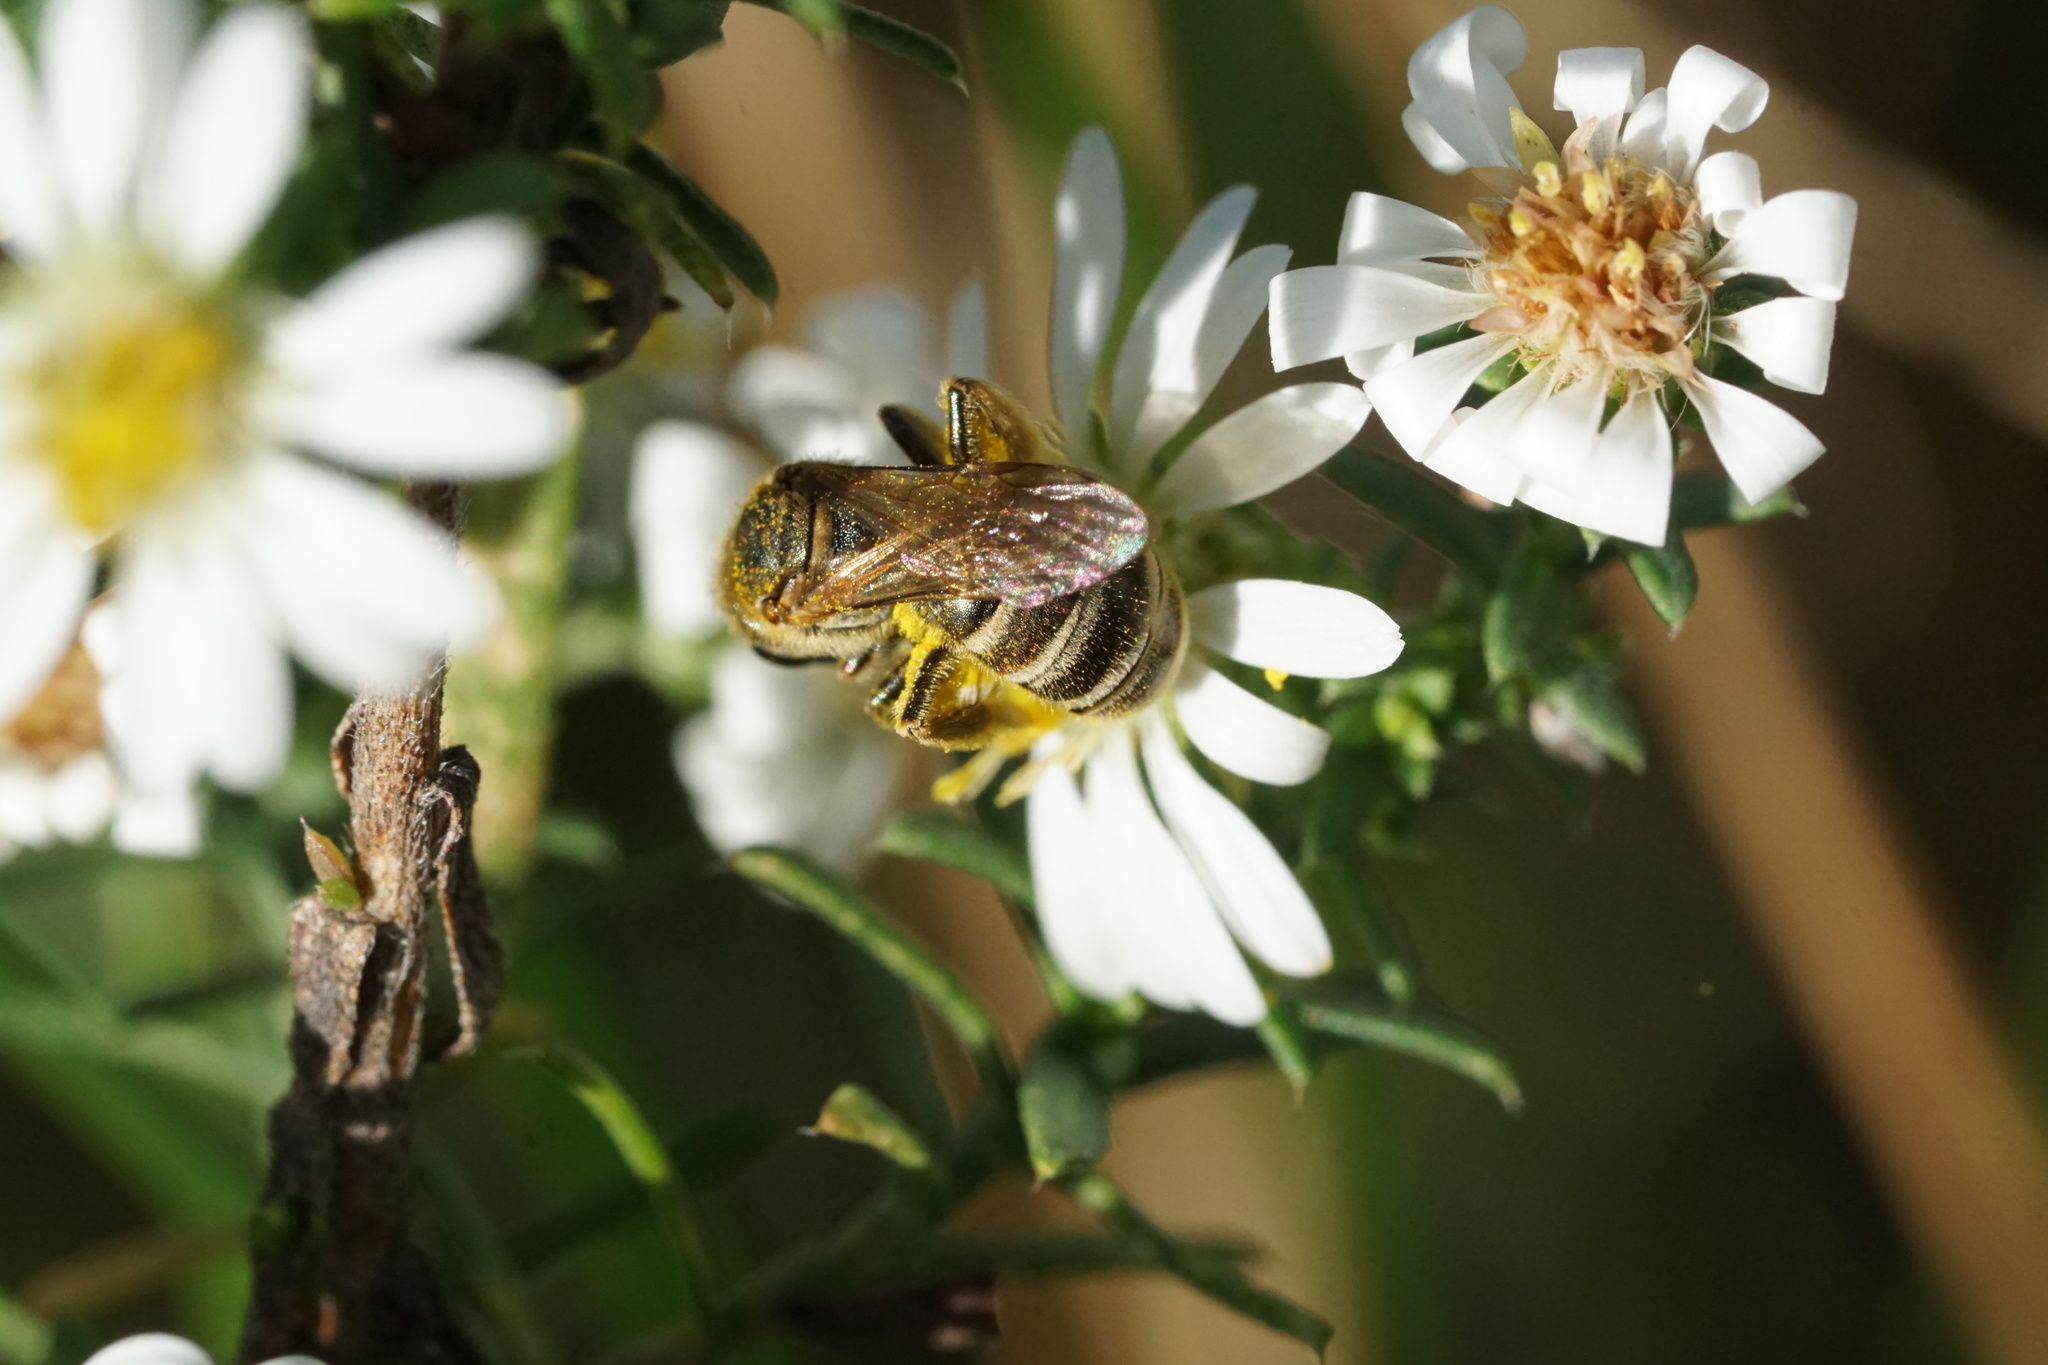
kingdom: Animalia
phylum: Arthropoda
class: Insecta
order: Hymenoptera
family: Halictidae
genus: Halictus
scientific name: Halictus confusus
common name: Southern bronze furrow bee
